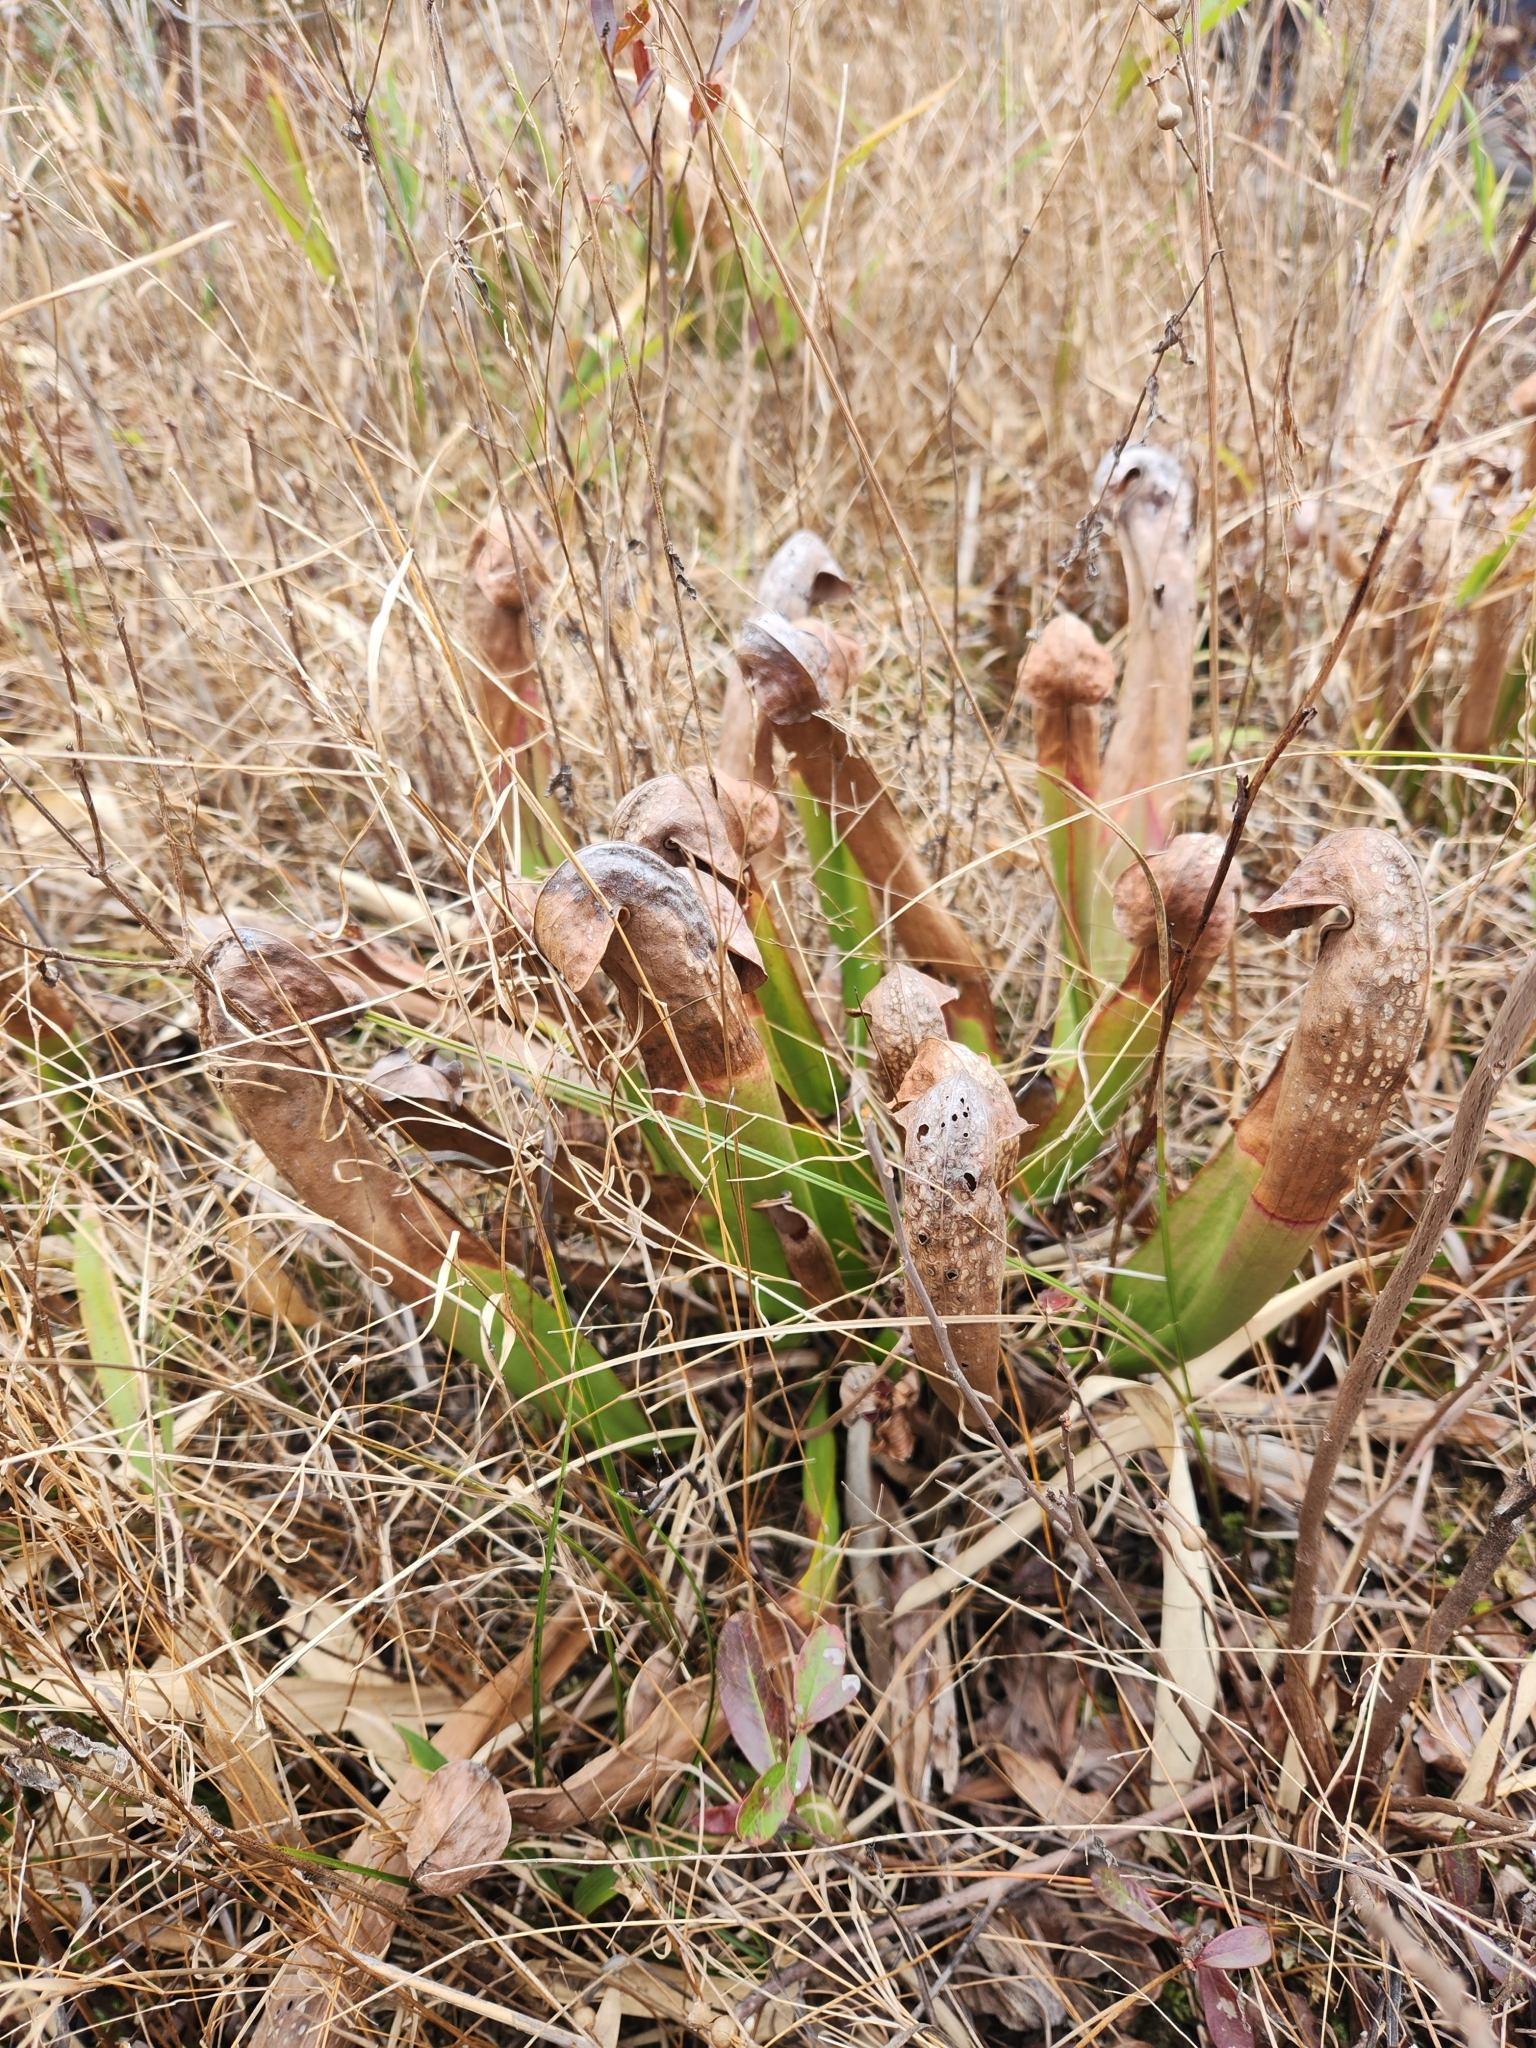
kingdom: Plantae
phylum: Tracheophyta
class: Magnoliopsida
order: Ericales
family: Sarraceniaceae
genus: Sarracenia
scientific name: Sarracenia minor
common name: Rainhat-trumpet
